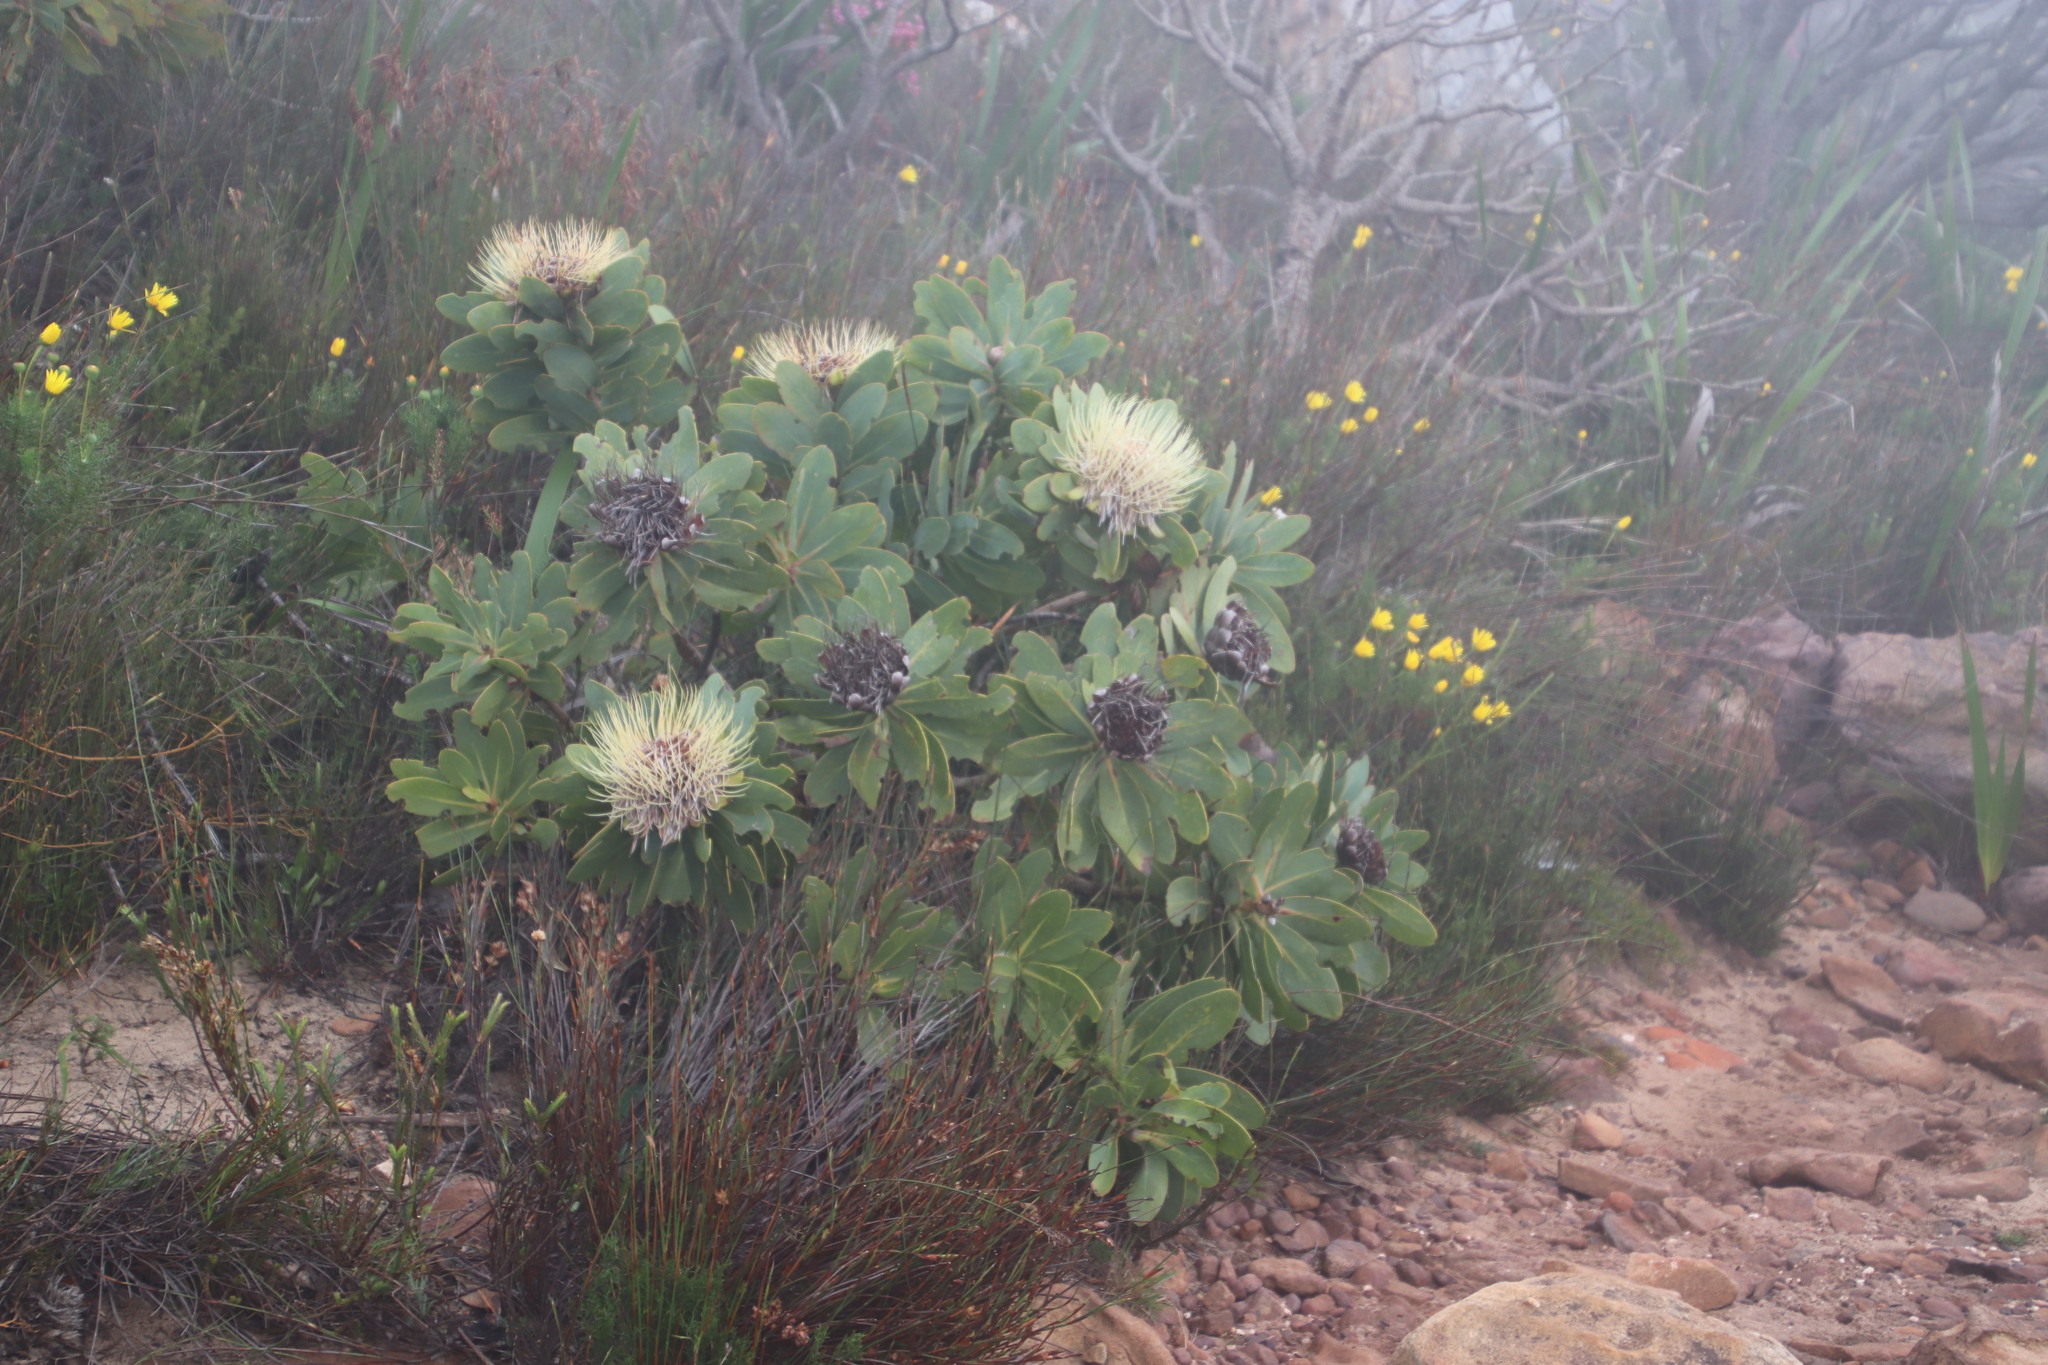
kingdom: Plantae
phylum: Tracheophyta
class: Magnoliopsida
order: Proteales
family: Proteaceae
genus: Protea
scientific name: Protea nitida
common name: Tree protea
